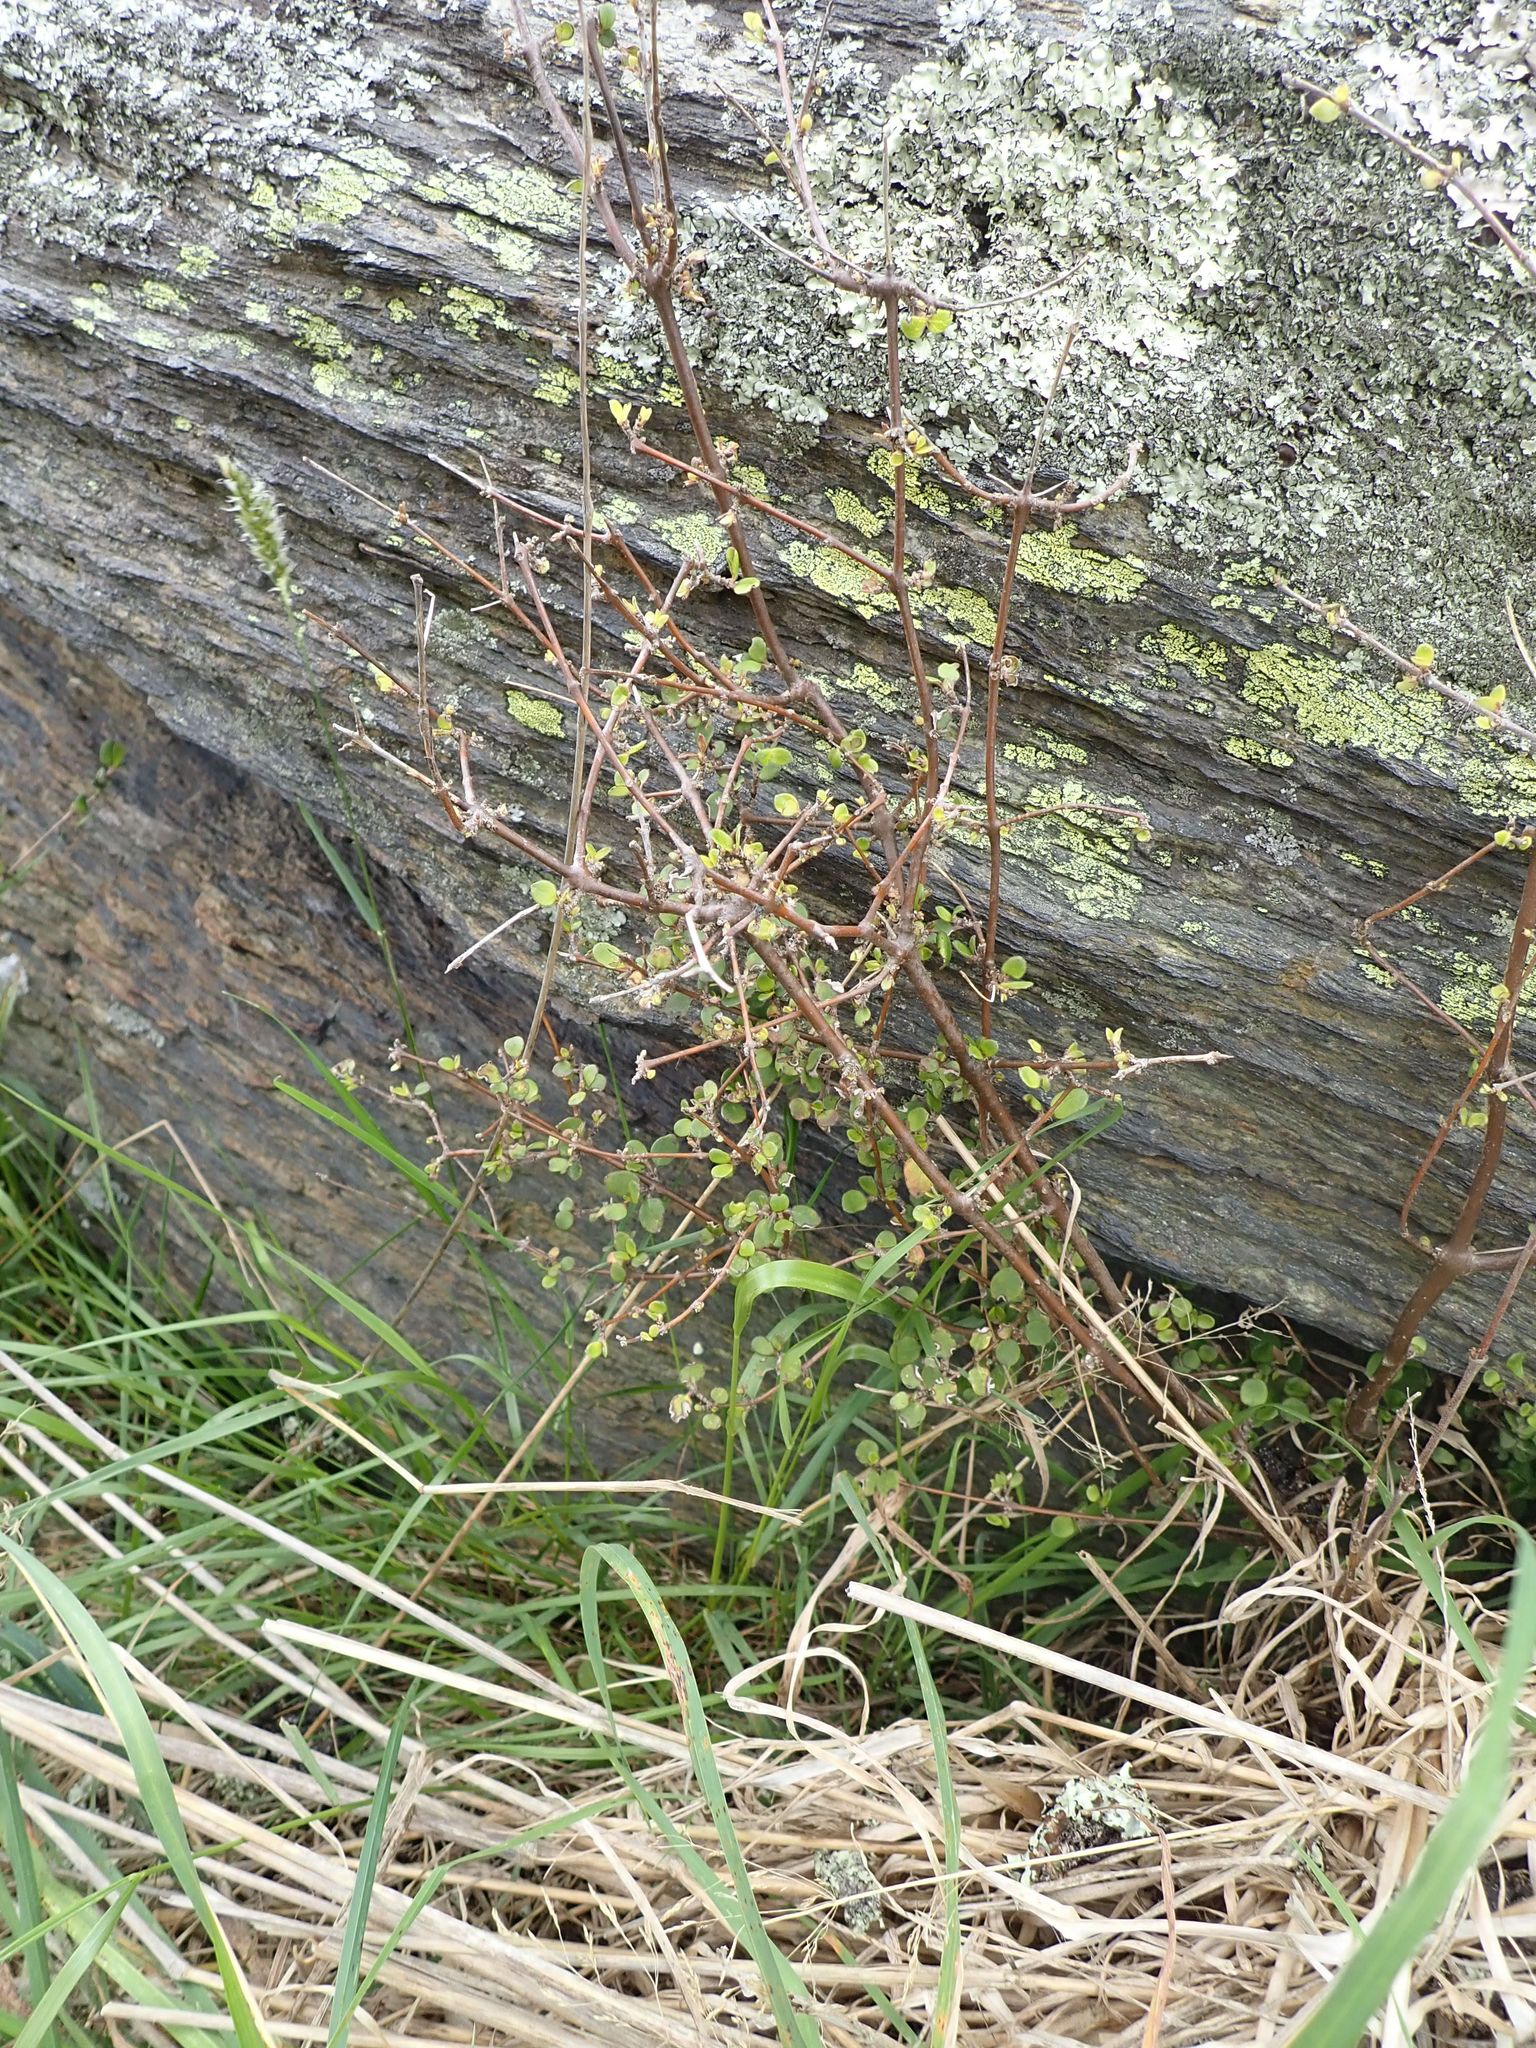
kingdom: Plantae
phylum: Tracheophyta
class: Magnoliopsida
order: Gentianales
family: Rubiaceae
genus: Coprosma
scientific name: Coprosma crassifolia
